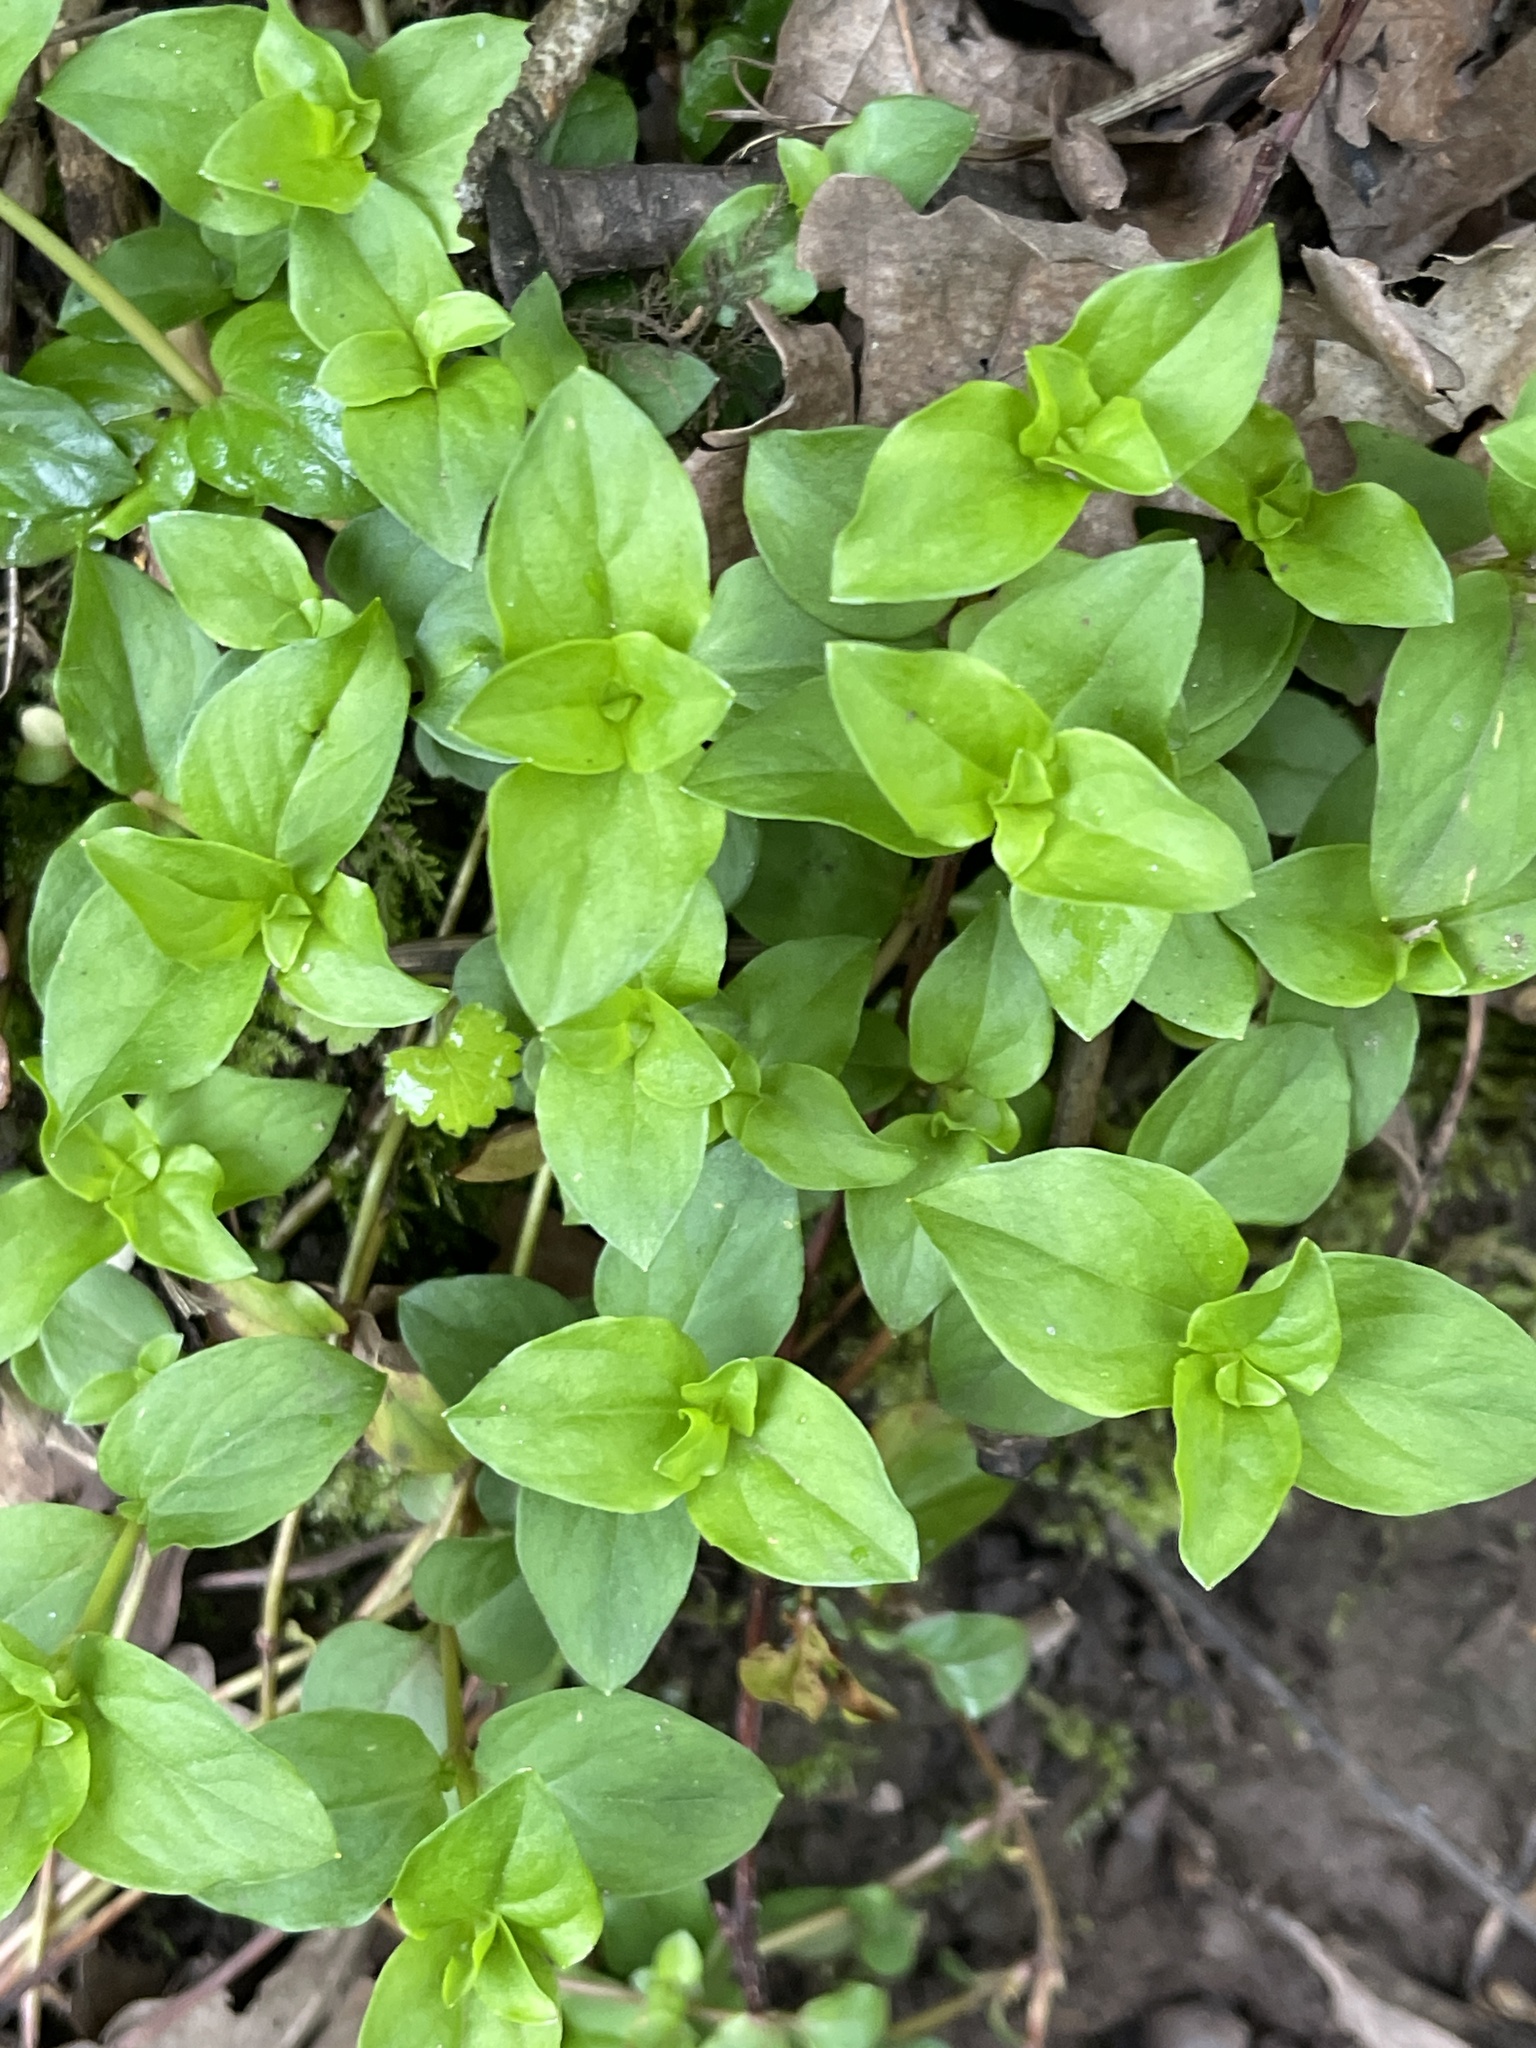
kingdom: Plantae
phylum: Tracheophyta
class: Magnoliopsida
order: Ericales
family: Primulaceae
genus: Lysimachia
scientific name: Lysimachia nemorum
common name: Yellow pimpernel
